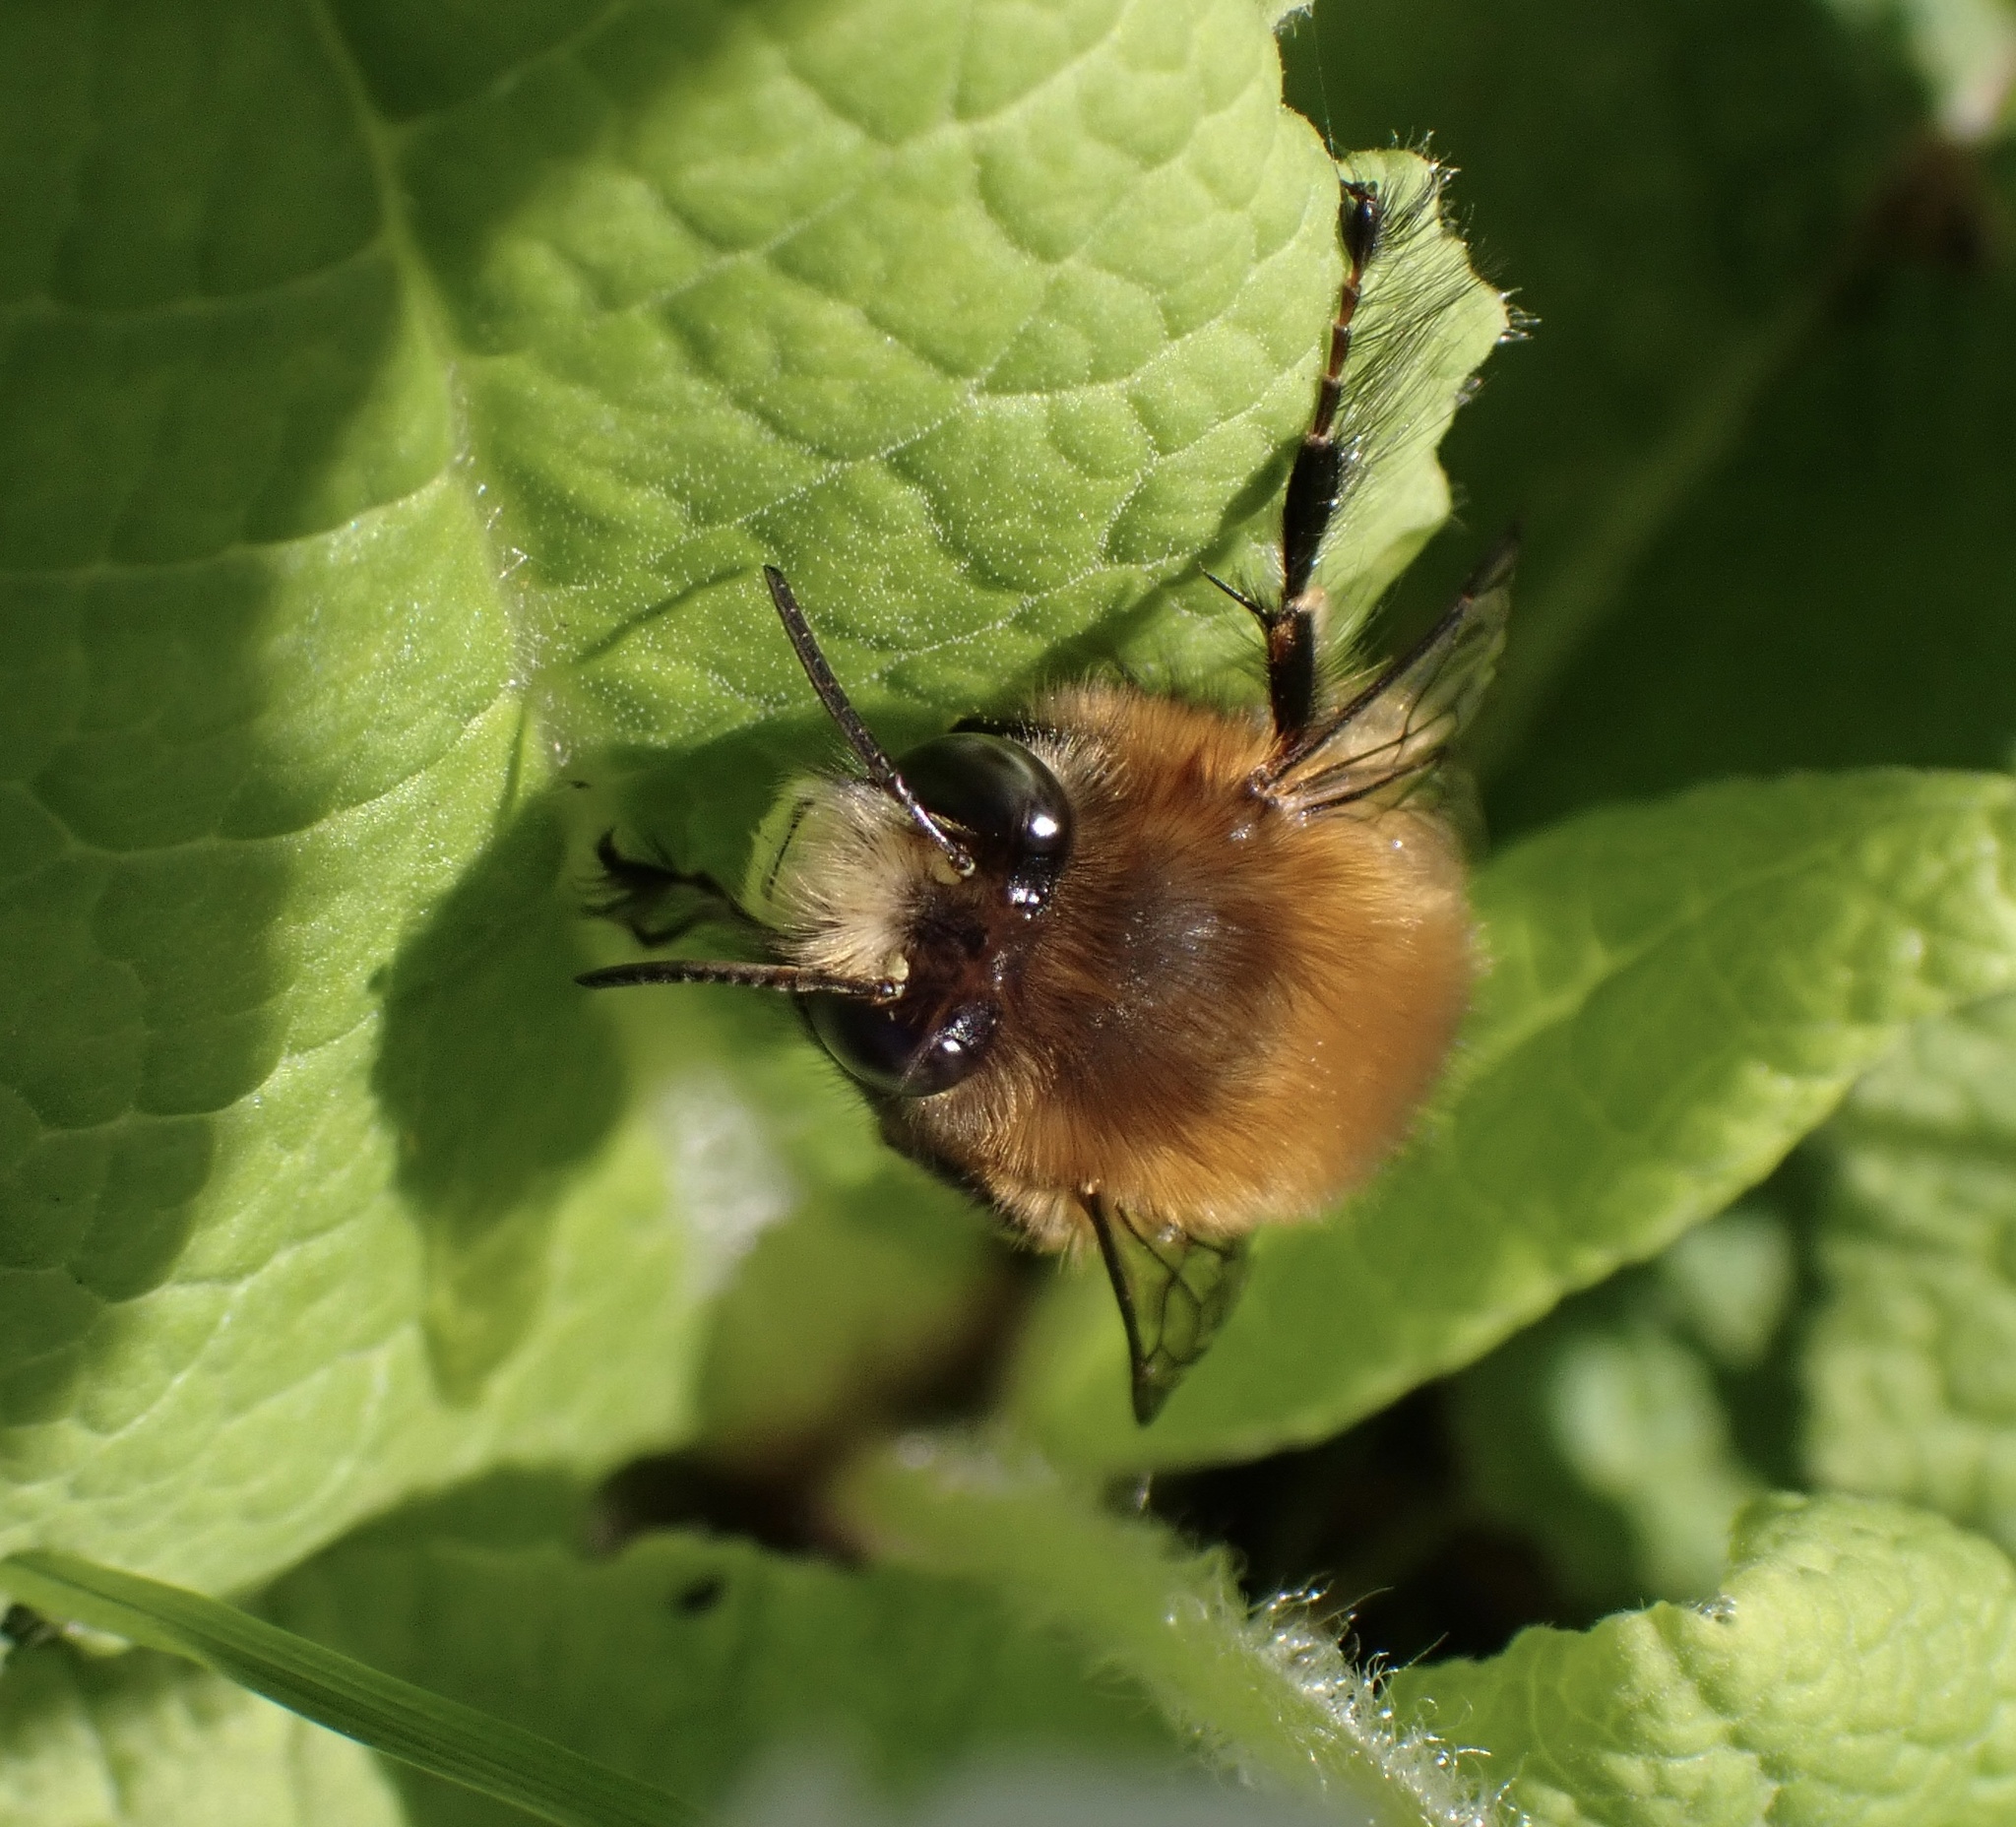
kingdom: Animalia
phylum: Arthropoda
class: Insecta
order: Hymenoptera
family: Apidae
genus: Anthophora
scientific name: Anthophora plumipes
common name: Hairy-footed flower bee
